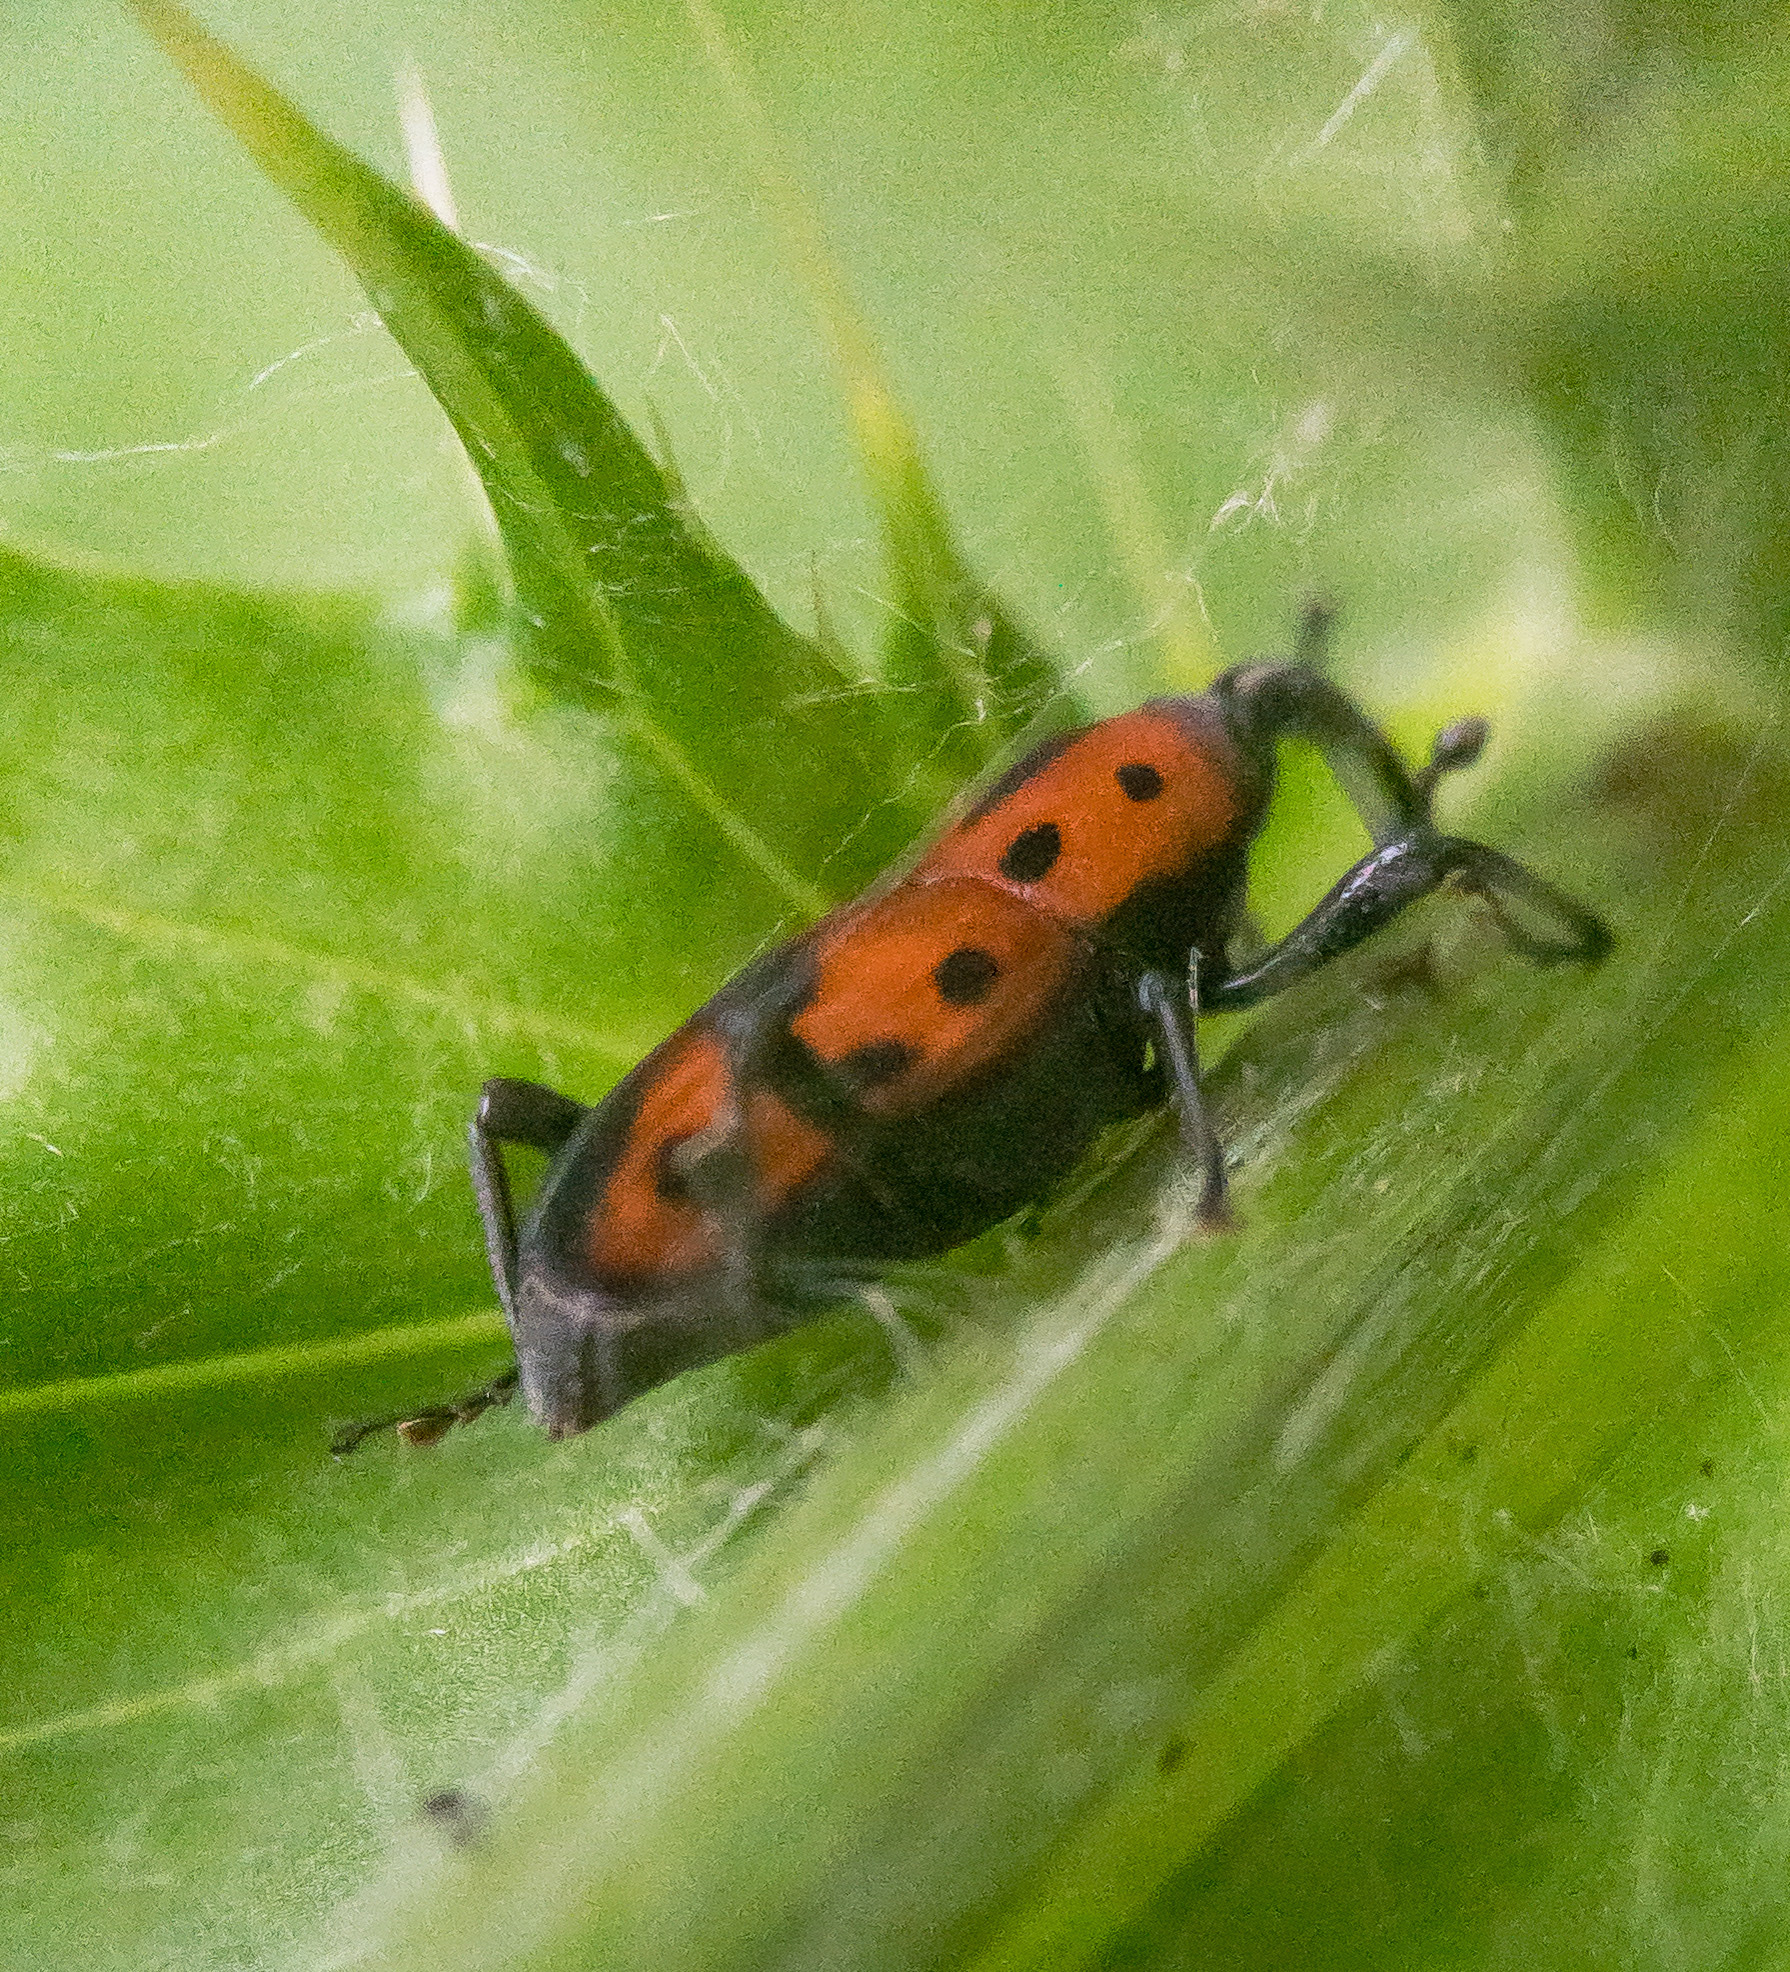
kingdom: Animalia
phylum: Arthropoda
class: Insecta
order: Coleoptera
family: Dryophthoridae
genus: Rhodobaenus
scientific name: Rhodobaenus quinquepunctatus
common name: Cocklebur weevil
